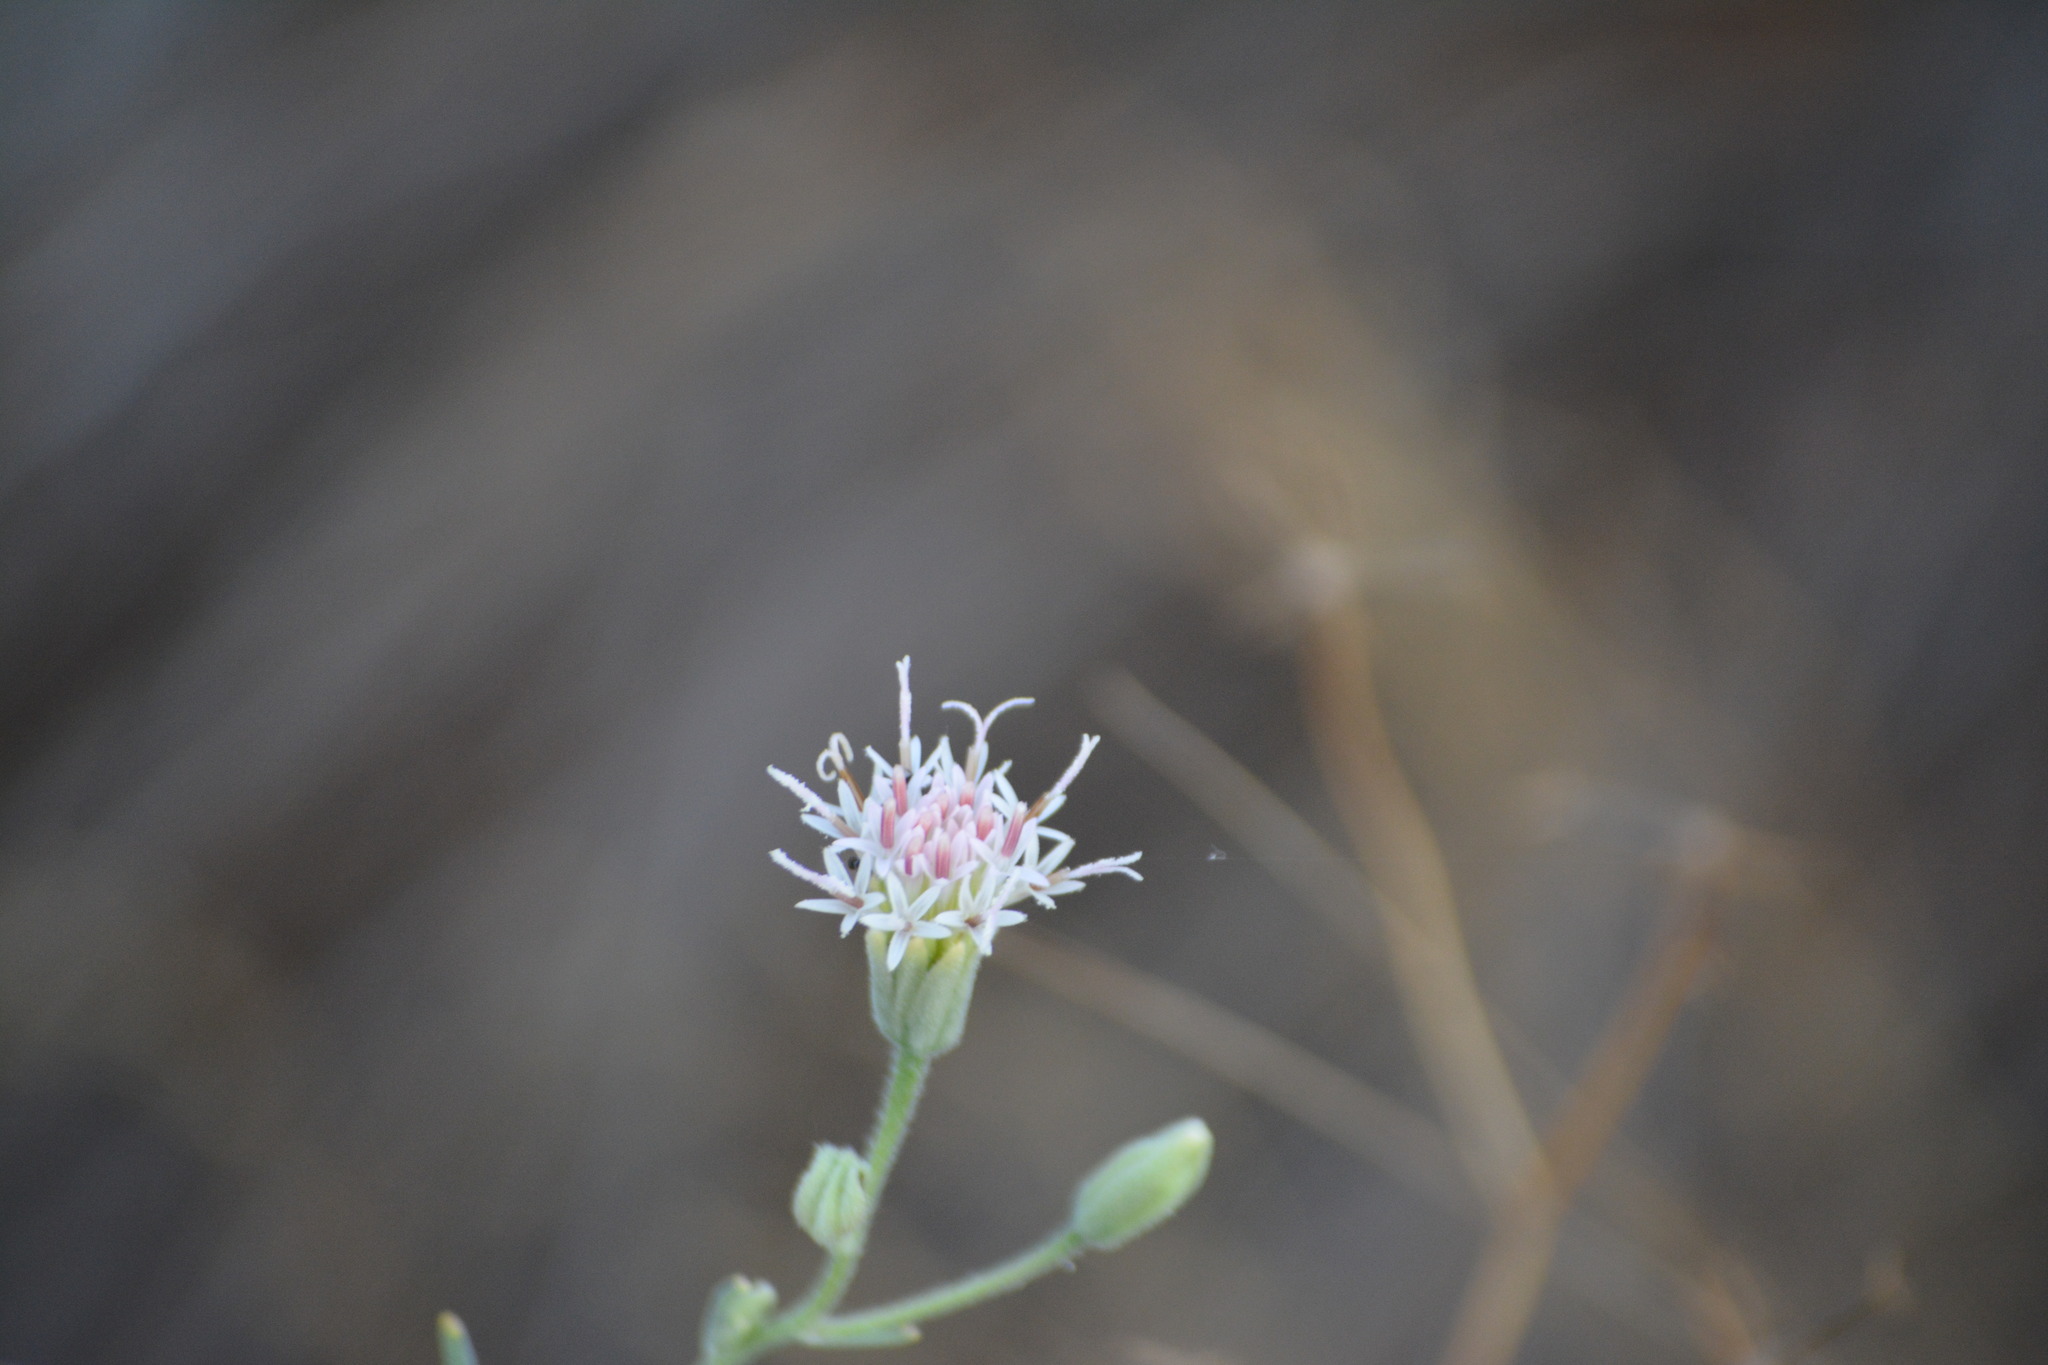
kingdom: Plantae
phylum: Tracheophyta
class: Magnoliopsida
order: Asterales
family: Asteraceae
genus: Palafoxia
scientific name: Palafoxia arida
